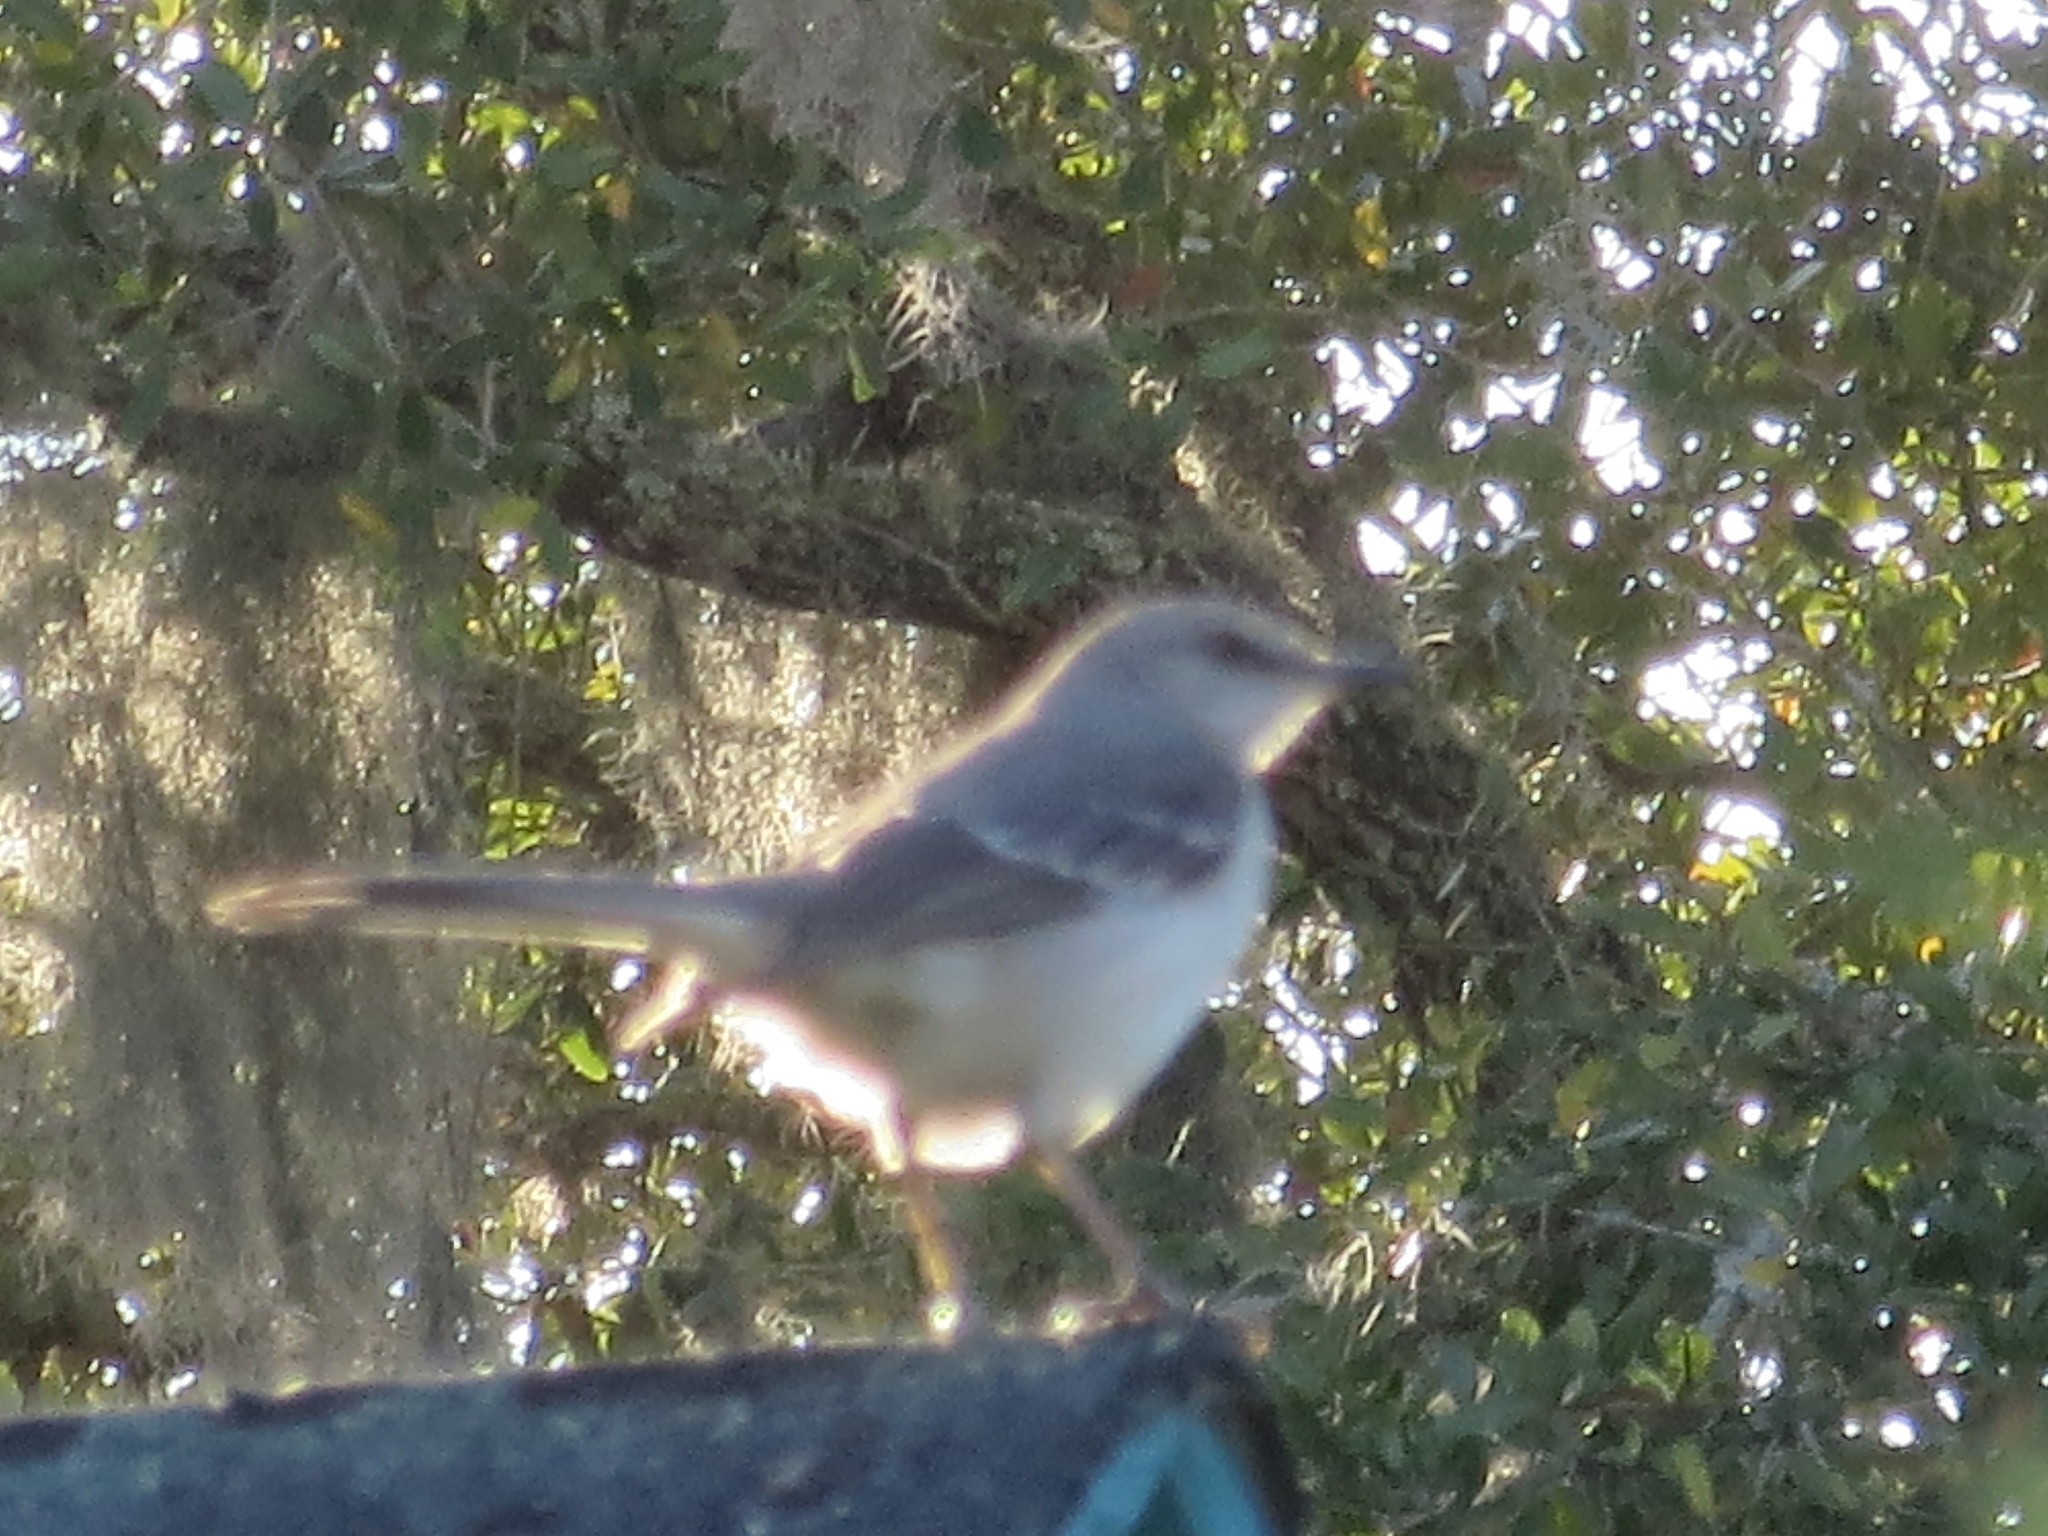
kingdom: Animalia
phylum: Chordata
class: Aves
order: Passeriformes
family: Mimidae
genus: Mimus
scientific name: Mimus polyglottos
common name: Northern mockingbird
